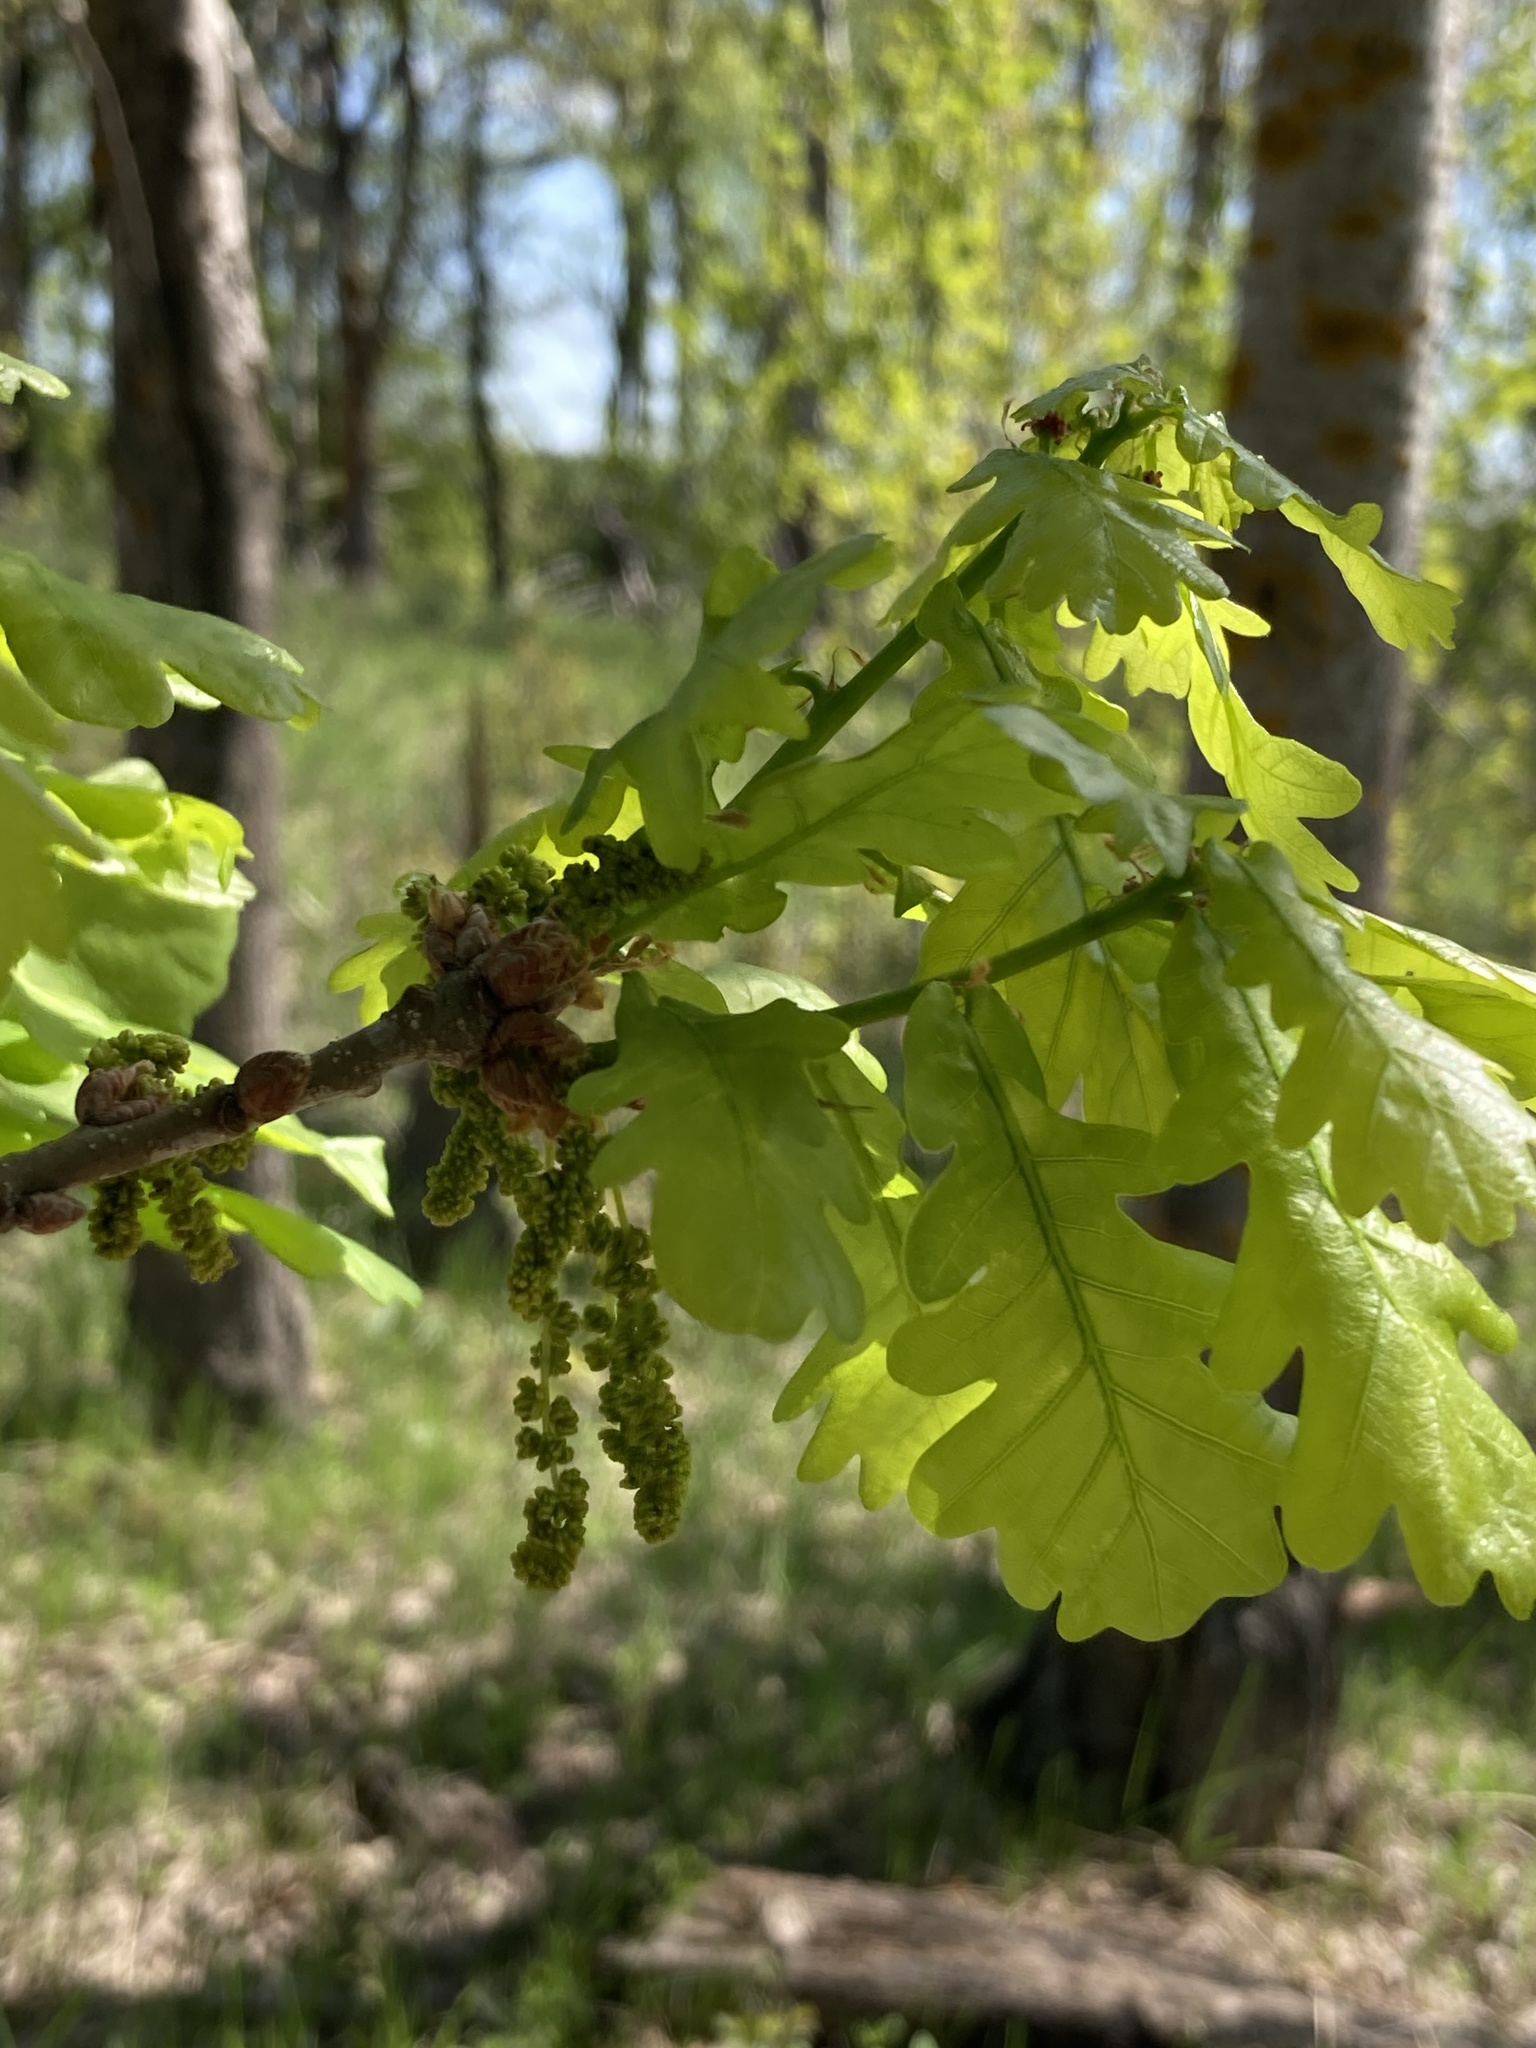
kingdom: Plantae
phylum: Tracheophyta
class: Magnoliopsida
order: Fagales
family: Fagaceae
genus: Quercus
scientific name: Quercus robur
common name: Pedunculate oak
